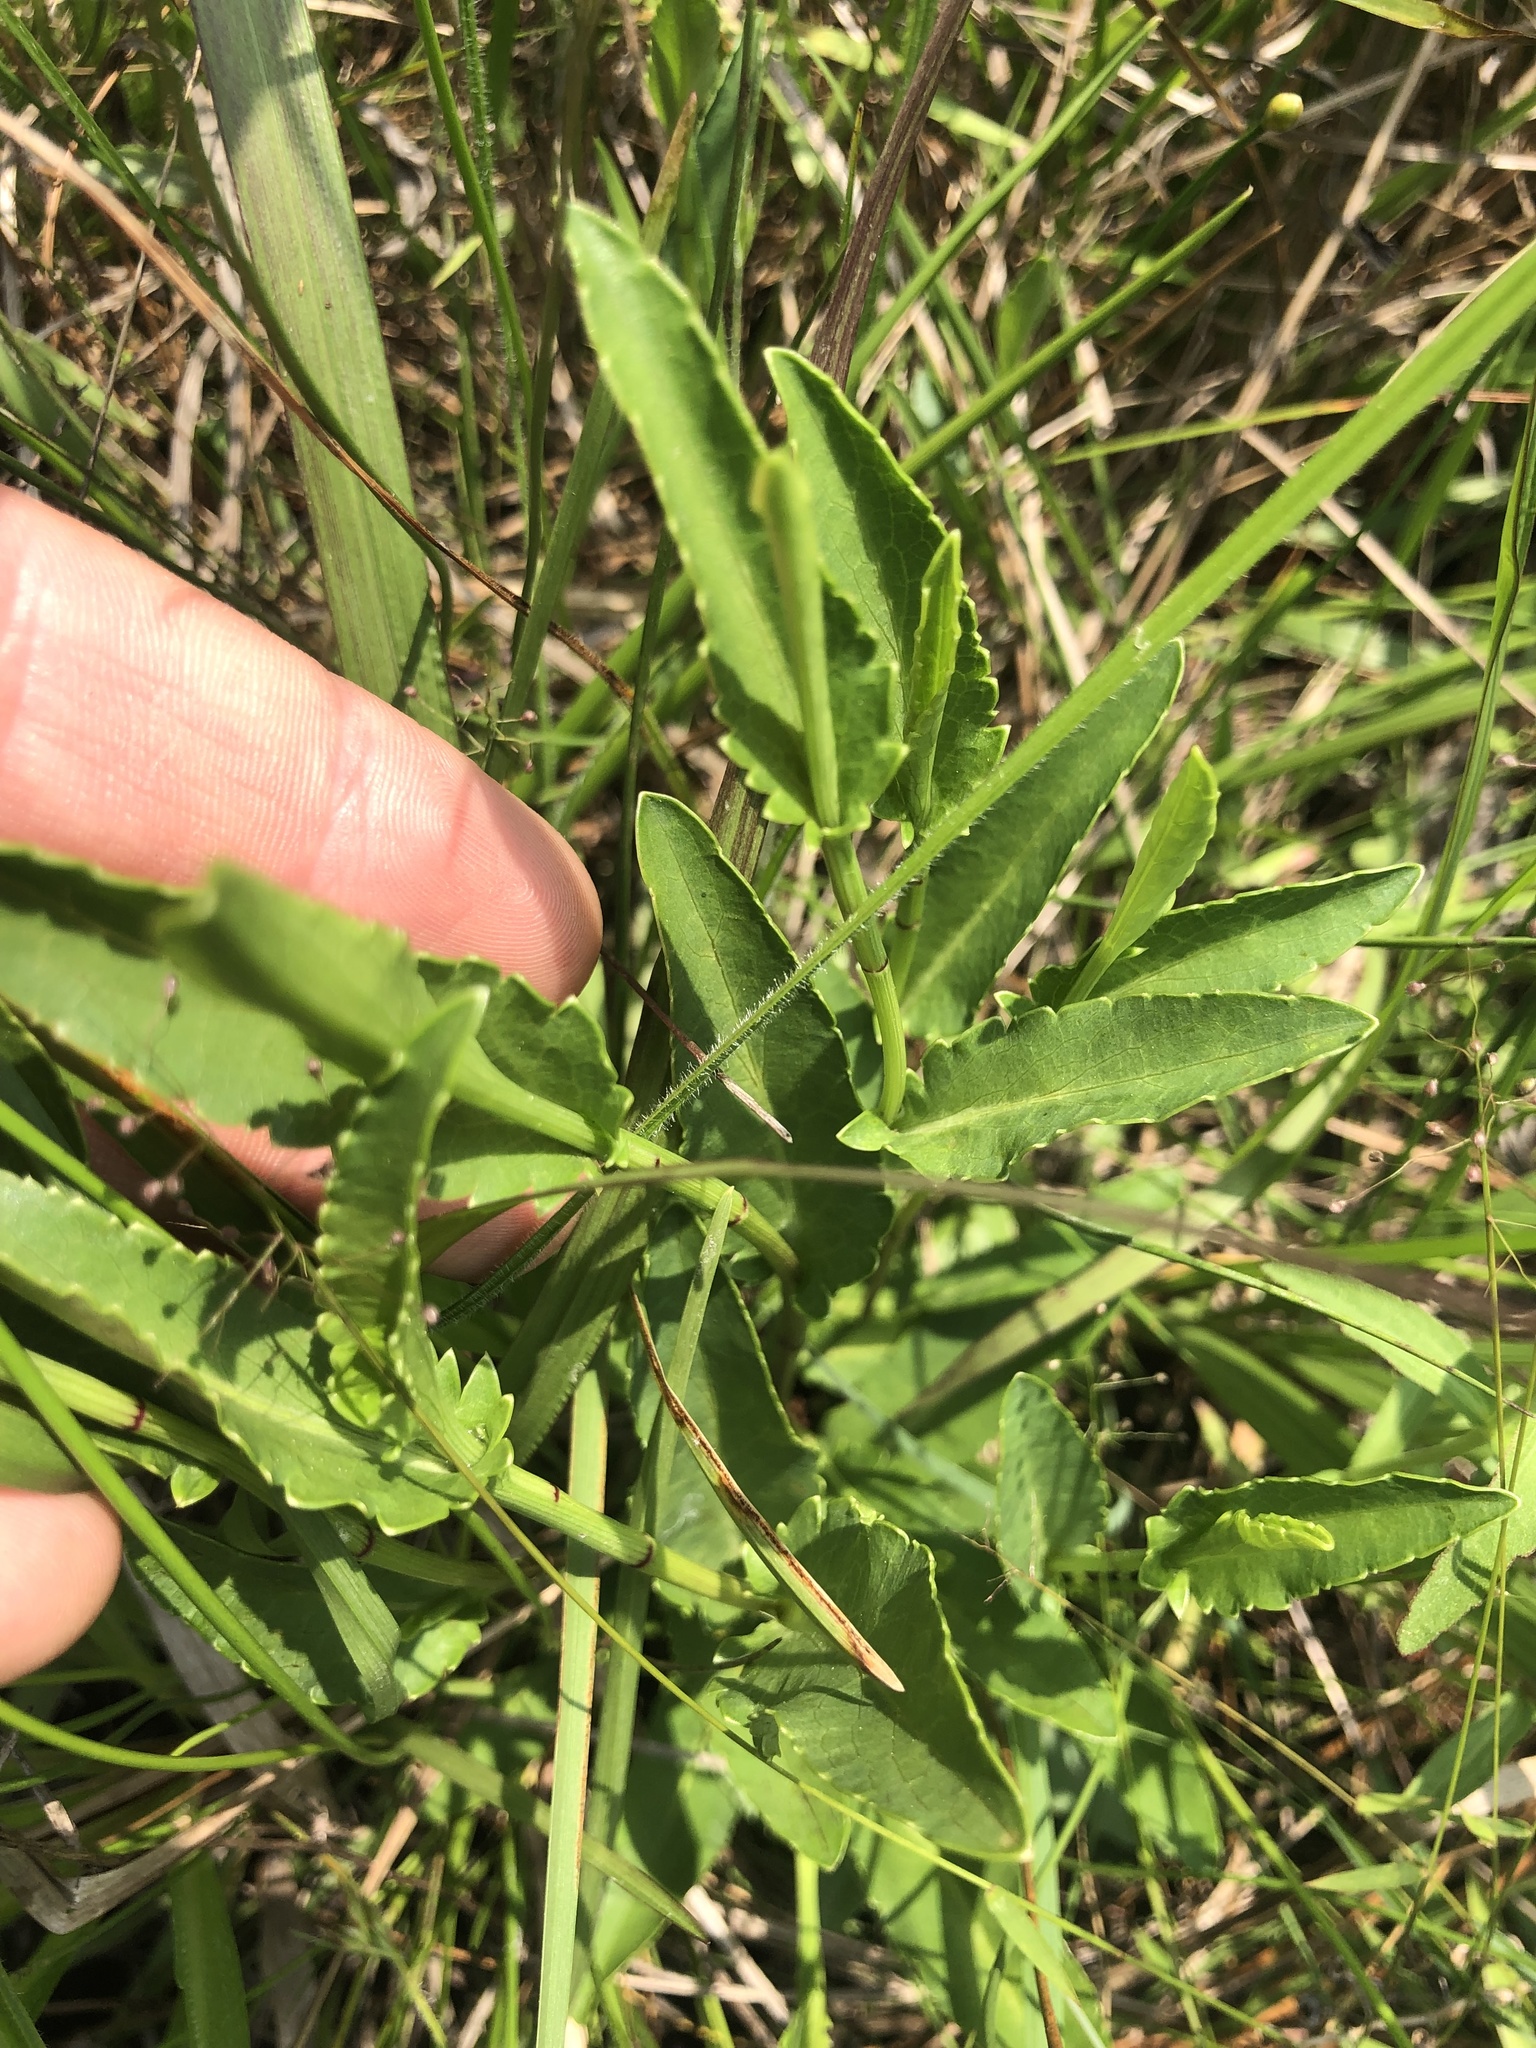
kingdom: Plantae
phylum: Tracheophyta
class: Magnoliopsida
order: Apiales
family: Apiaceae
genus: Eryngium
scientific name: Eryngium integrifolium
